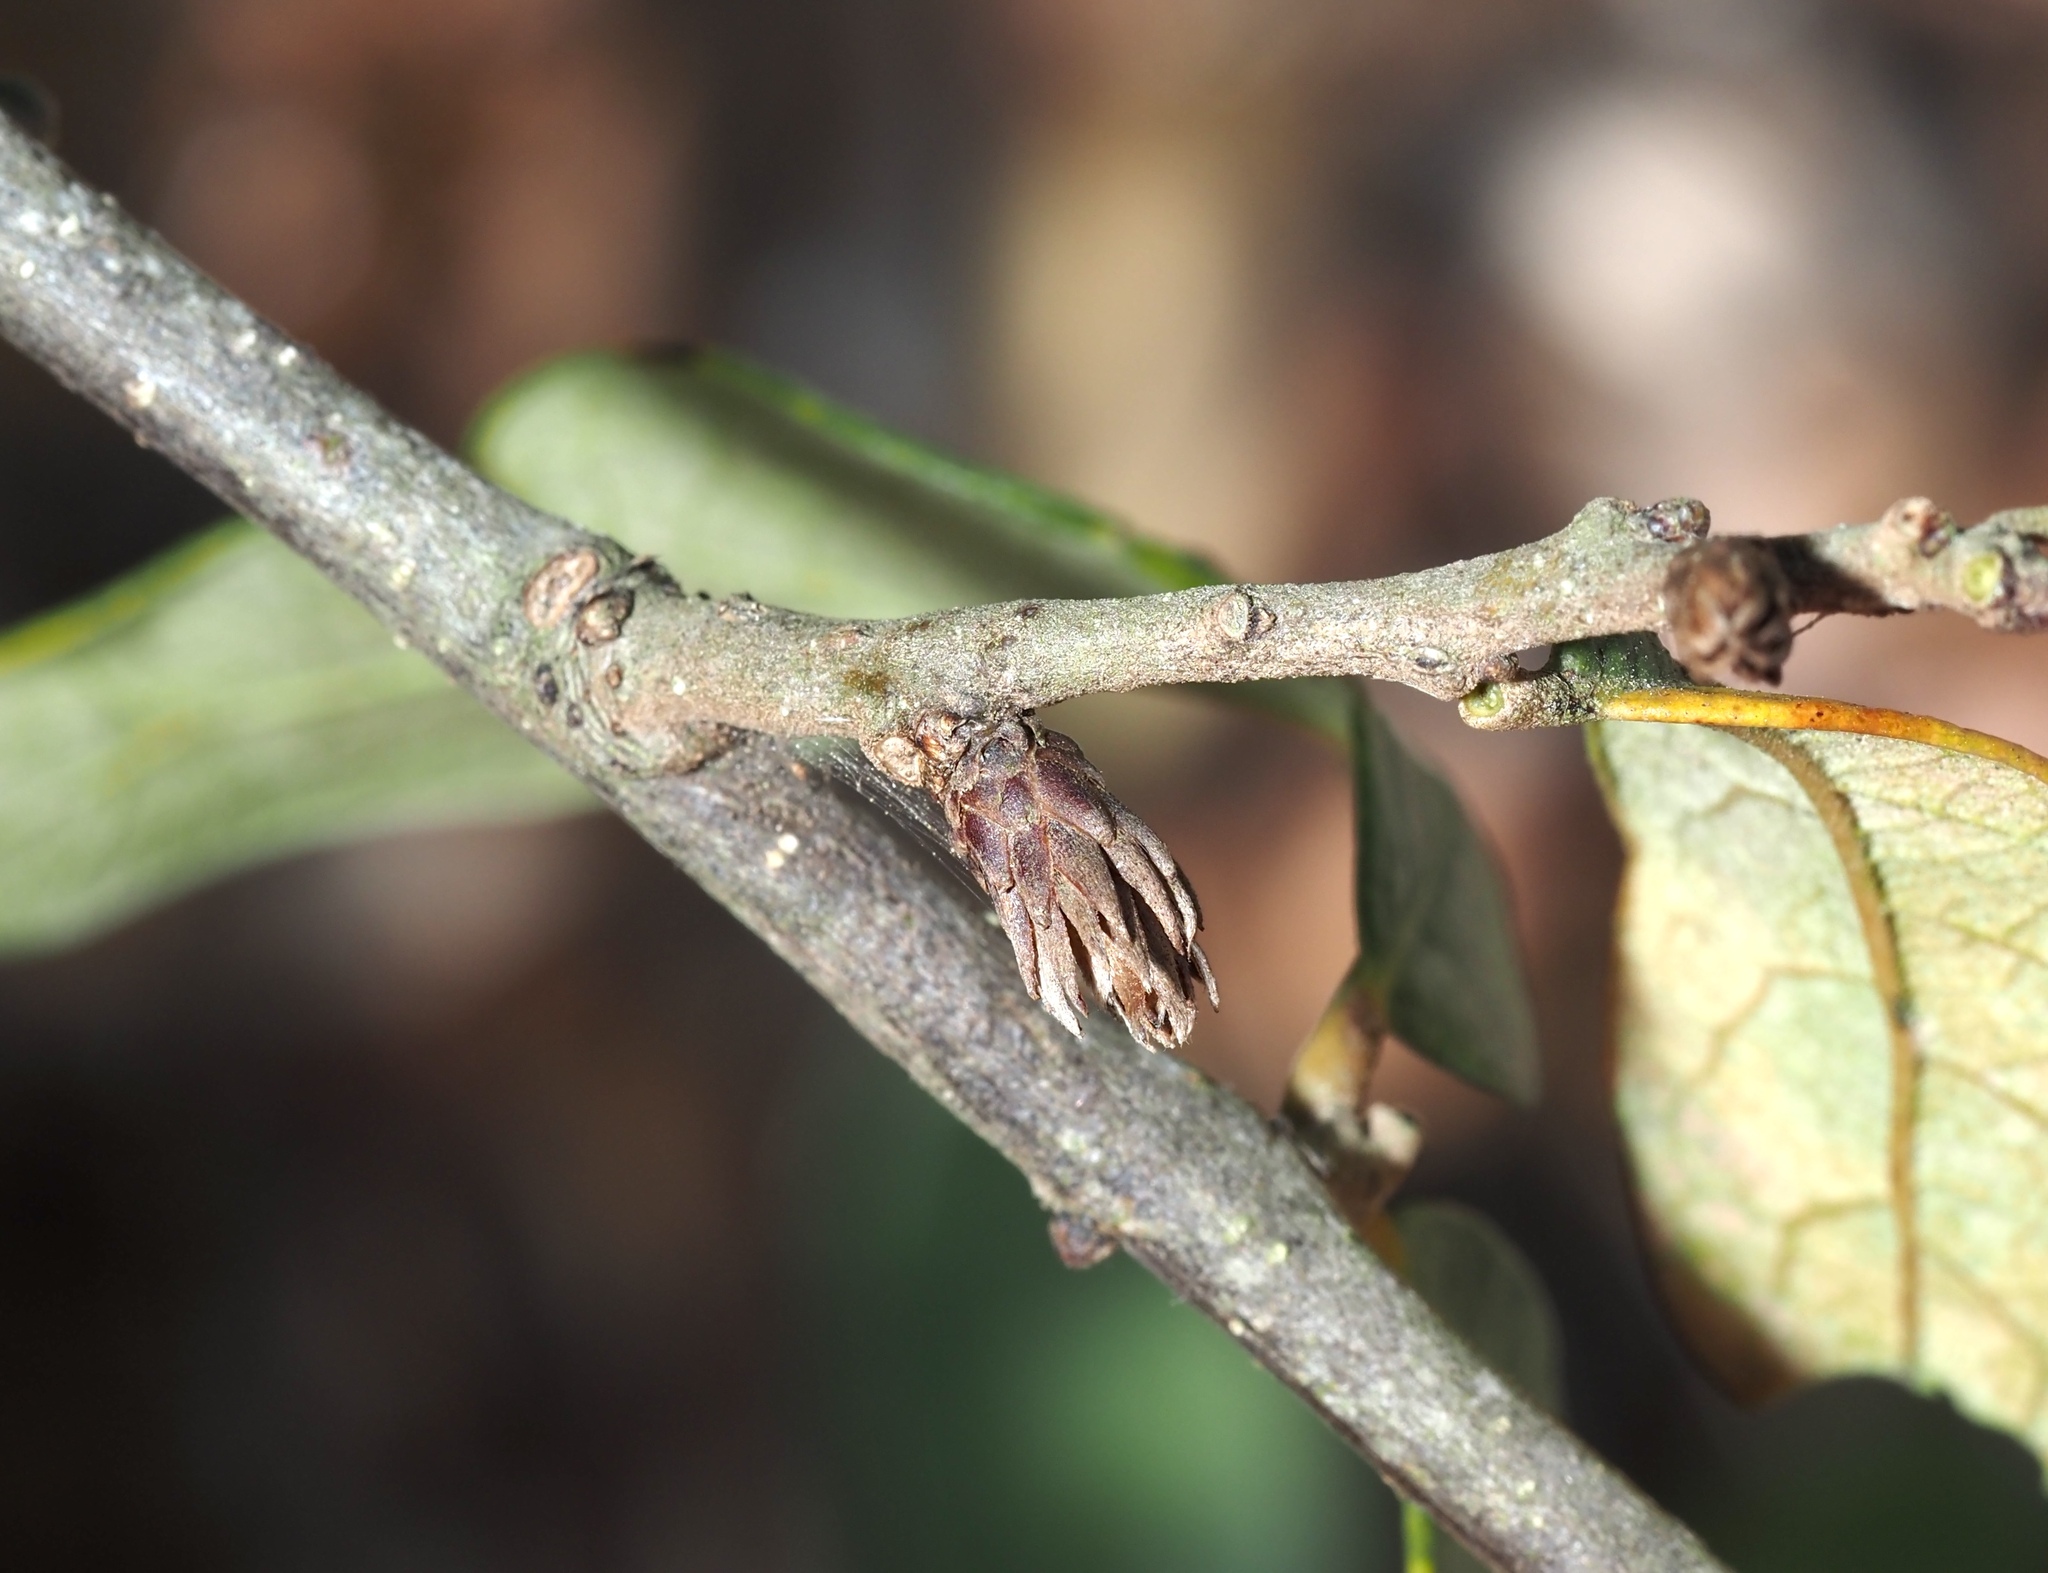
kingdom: Animalia
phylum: Arthropoda
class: Insecta
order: Hymenoptera
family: Cynipidae
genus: Andricus
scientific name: Andricus quercusfoliatus
